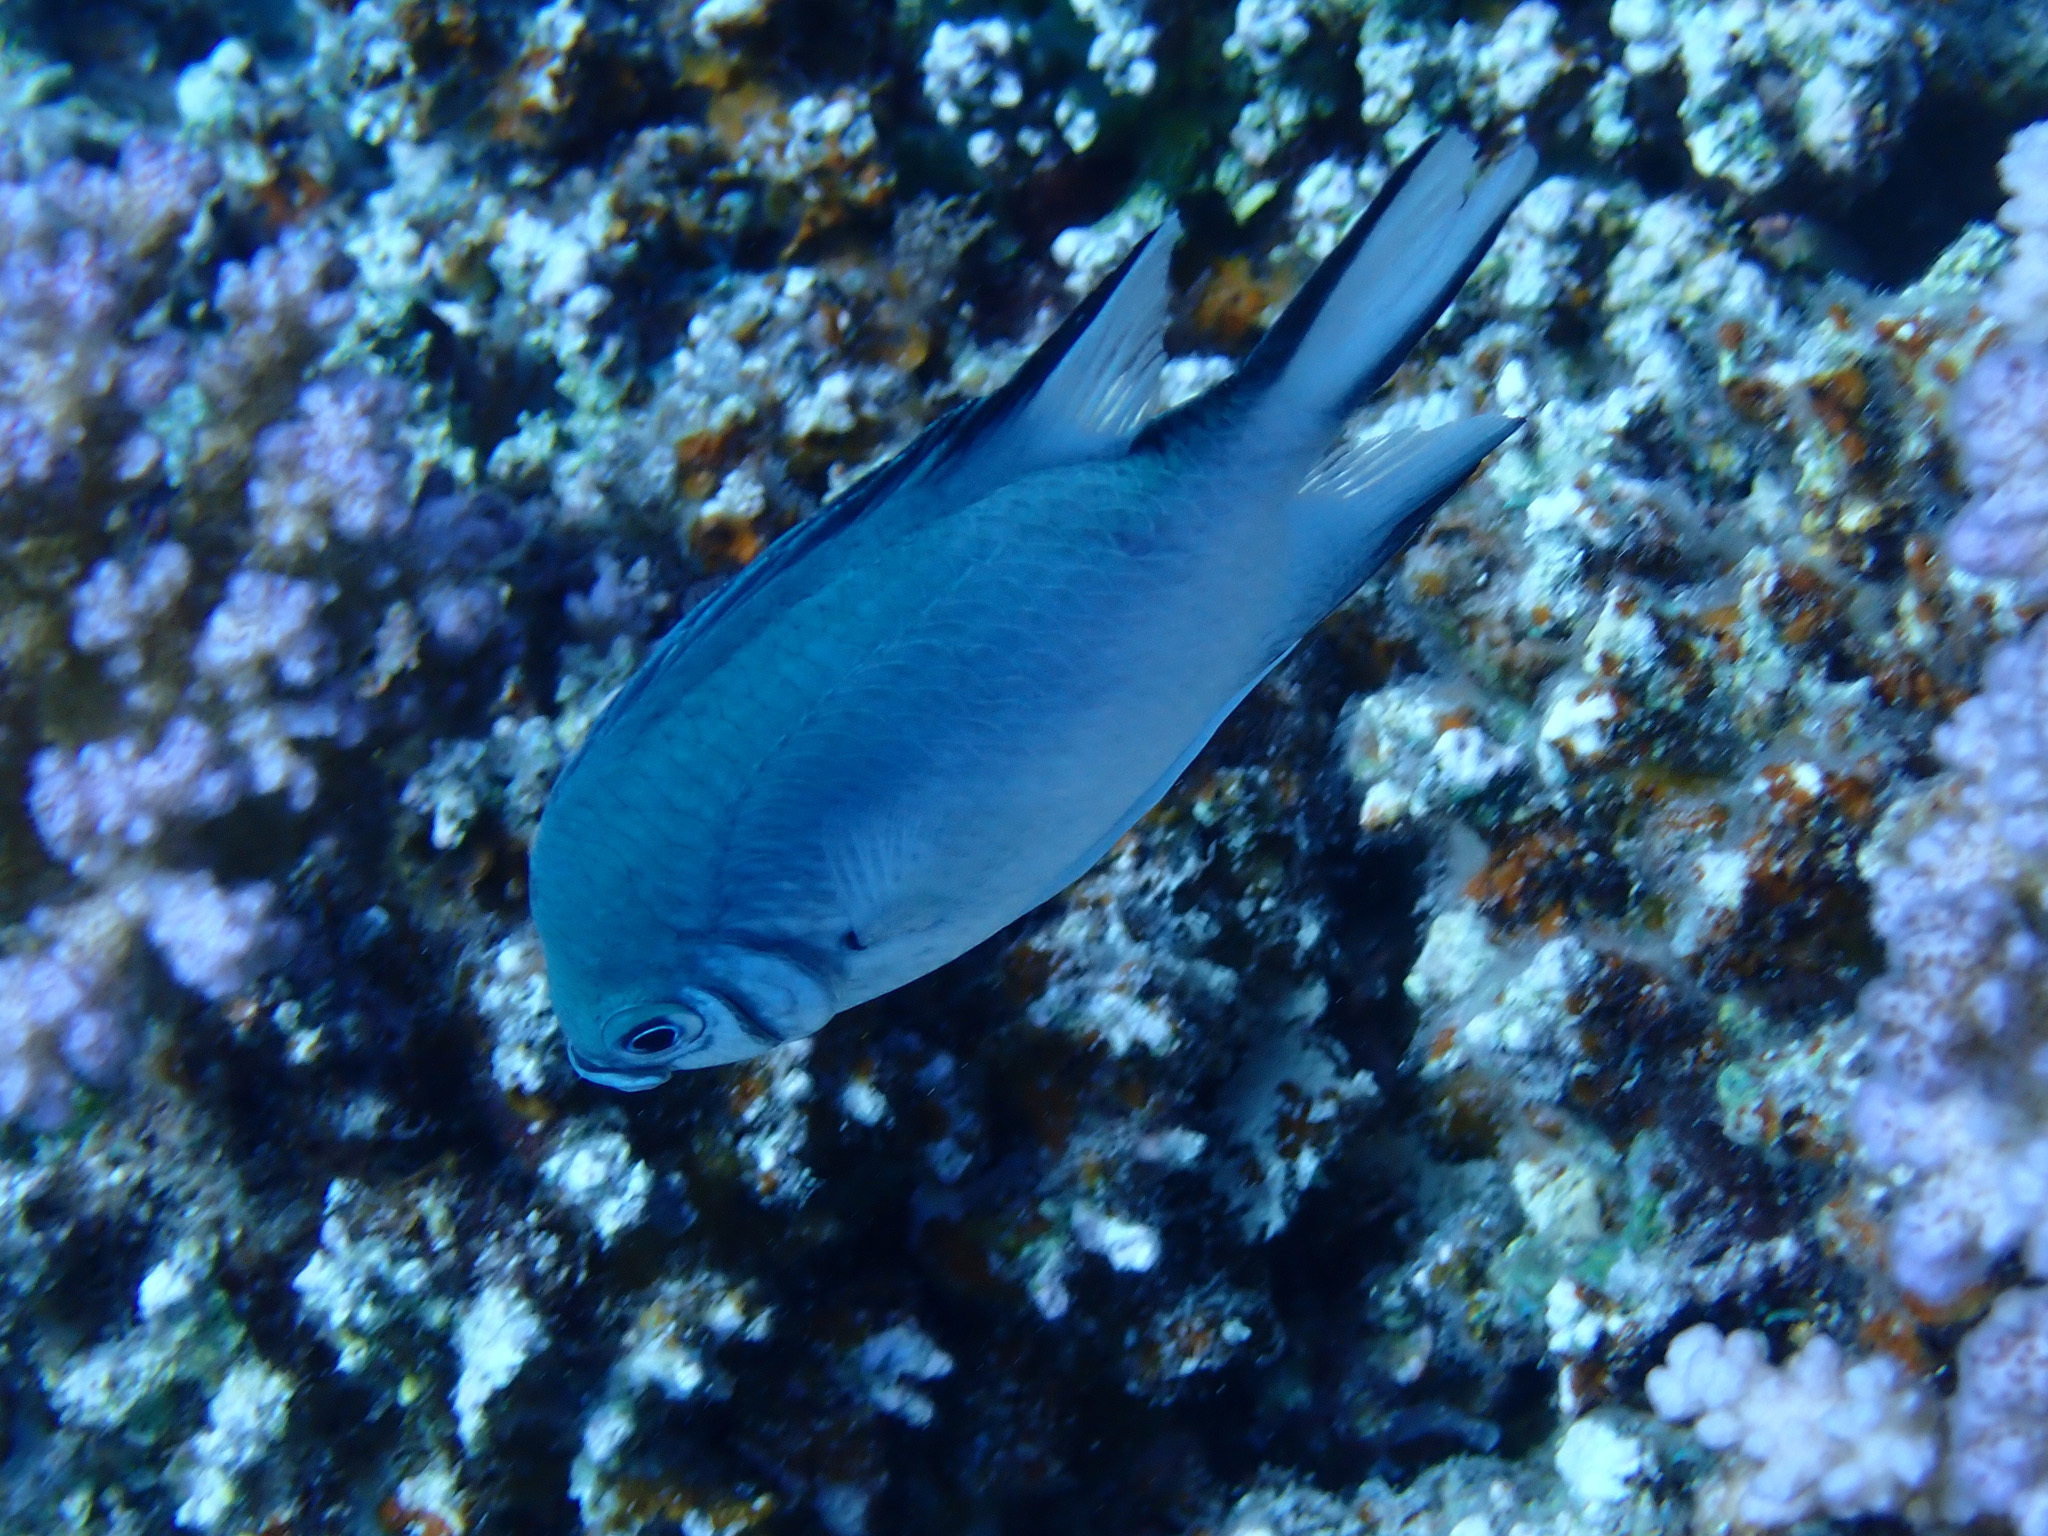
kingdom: Animalia
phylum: Chordata
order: Perciformes
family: Pomacentridae
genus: Amblyglyphidodon
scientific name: Amblyglyphidodon indicus
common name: Maldives damselfish
